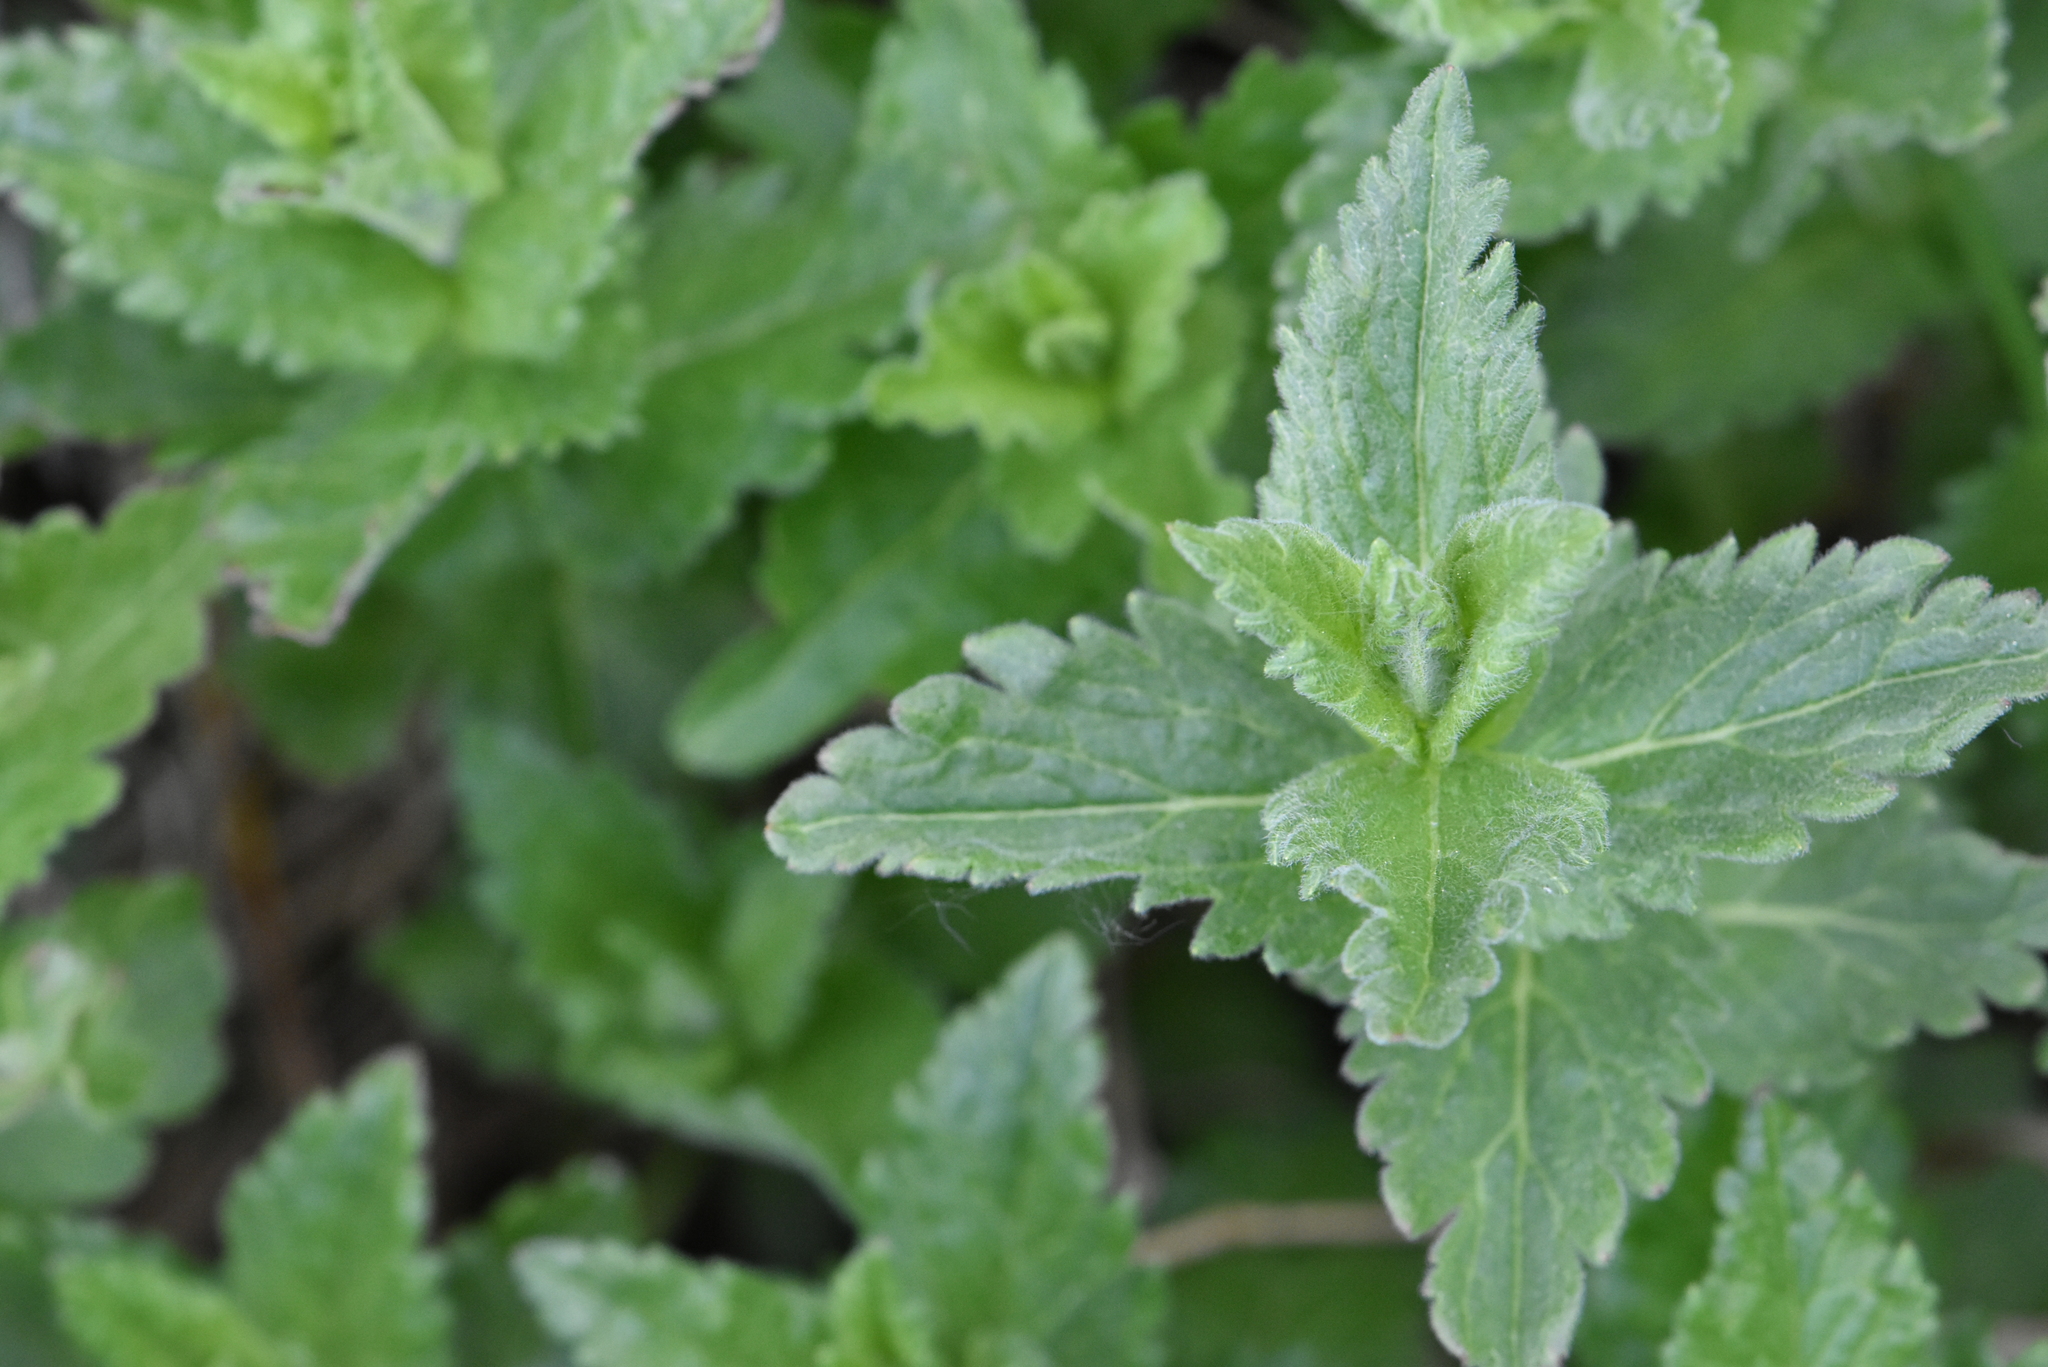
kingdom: Plantae
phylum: Tracheophyta
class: Magnoliopsida
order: Lamiales
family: Plantaginaceae
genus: Veronica
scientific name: Veronica teucrium
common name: Large speedwell
